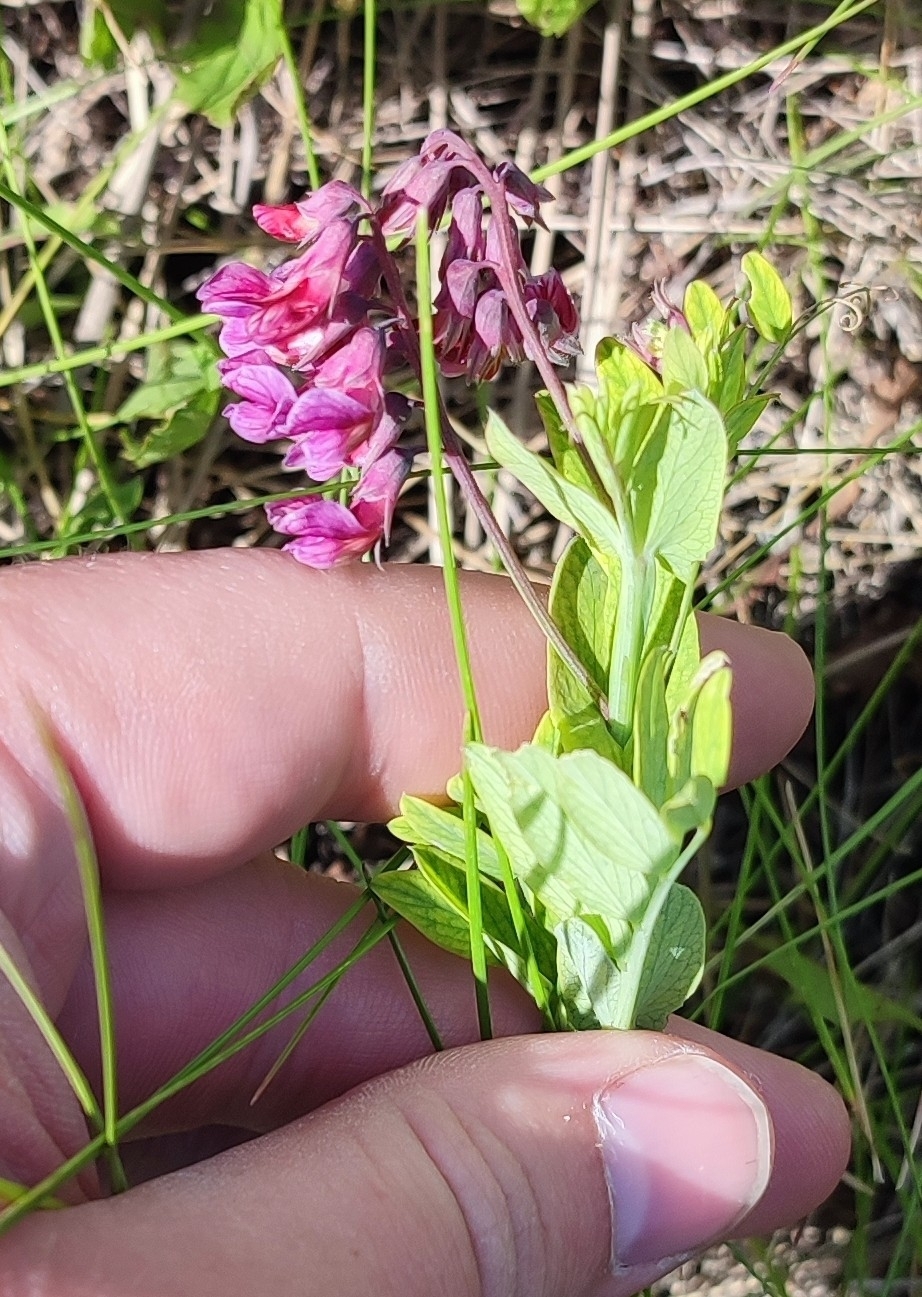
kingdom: Plantae
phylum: Tracheophyta
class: Magnoliopsida
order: Fabales
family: Fabaceae
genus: Lathyrus
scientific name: Lathyrus pisiformis
